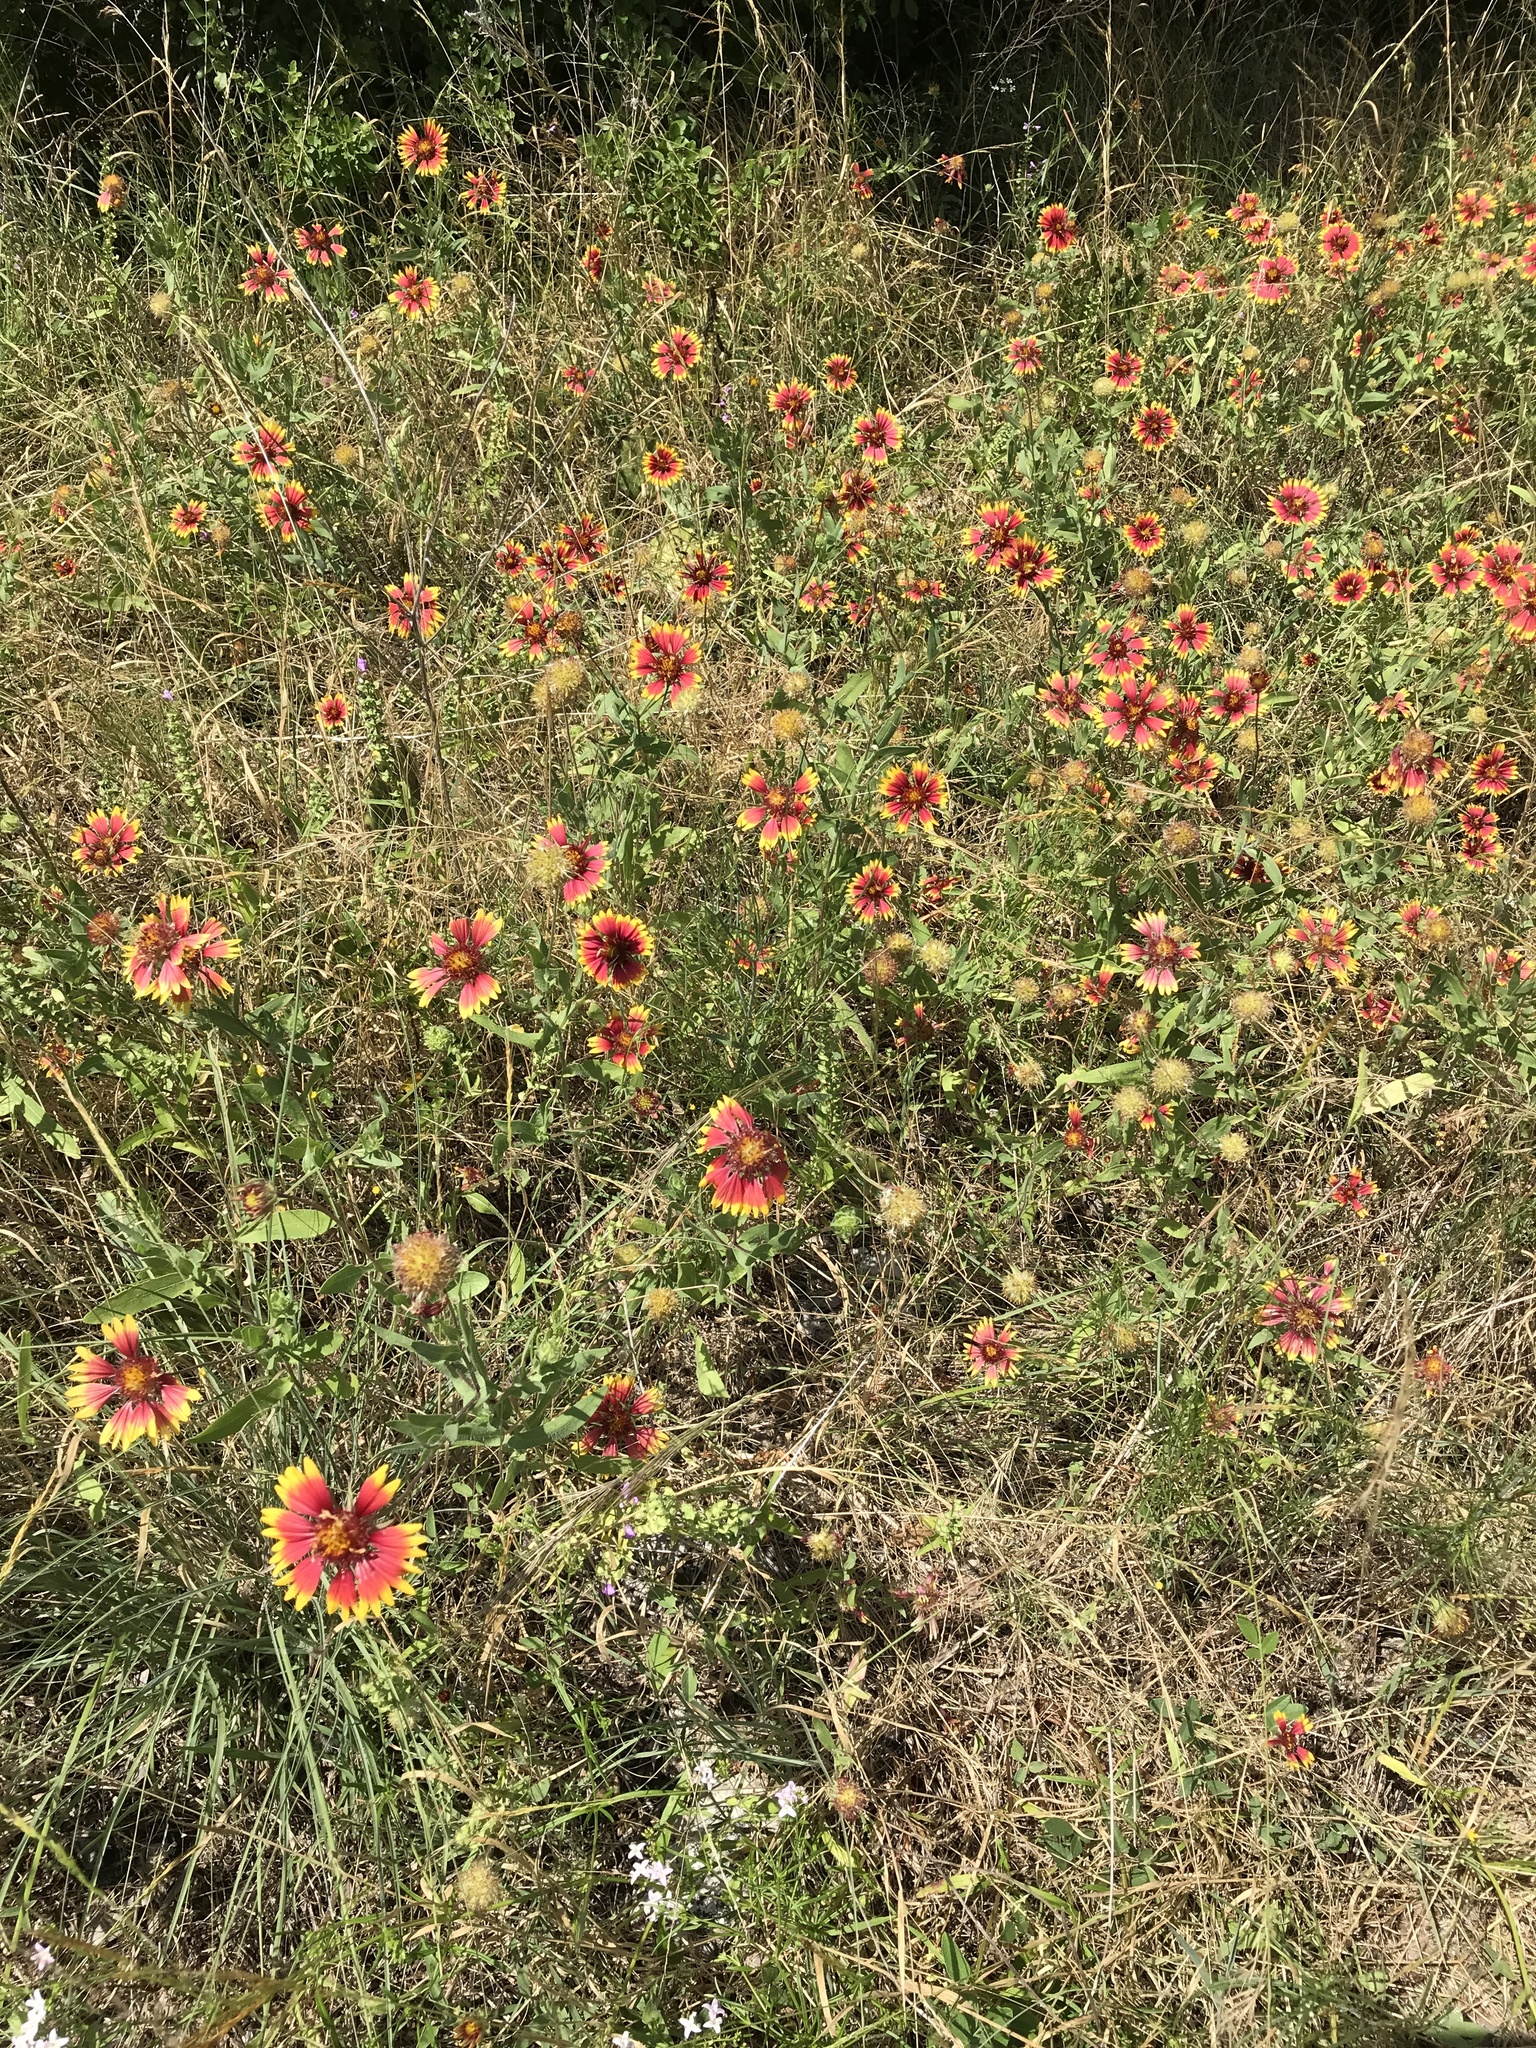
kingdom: Plantae
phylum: Tracheophyta
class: Magnoliopsida
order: Asterales
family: Asteraceae
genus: Gaillardia
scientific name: Gaillardia pulchella
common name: Firewheel
